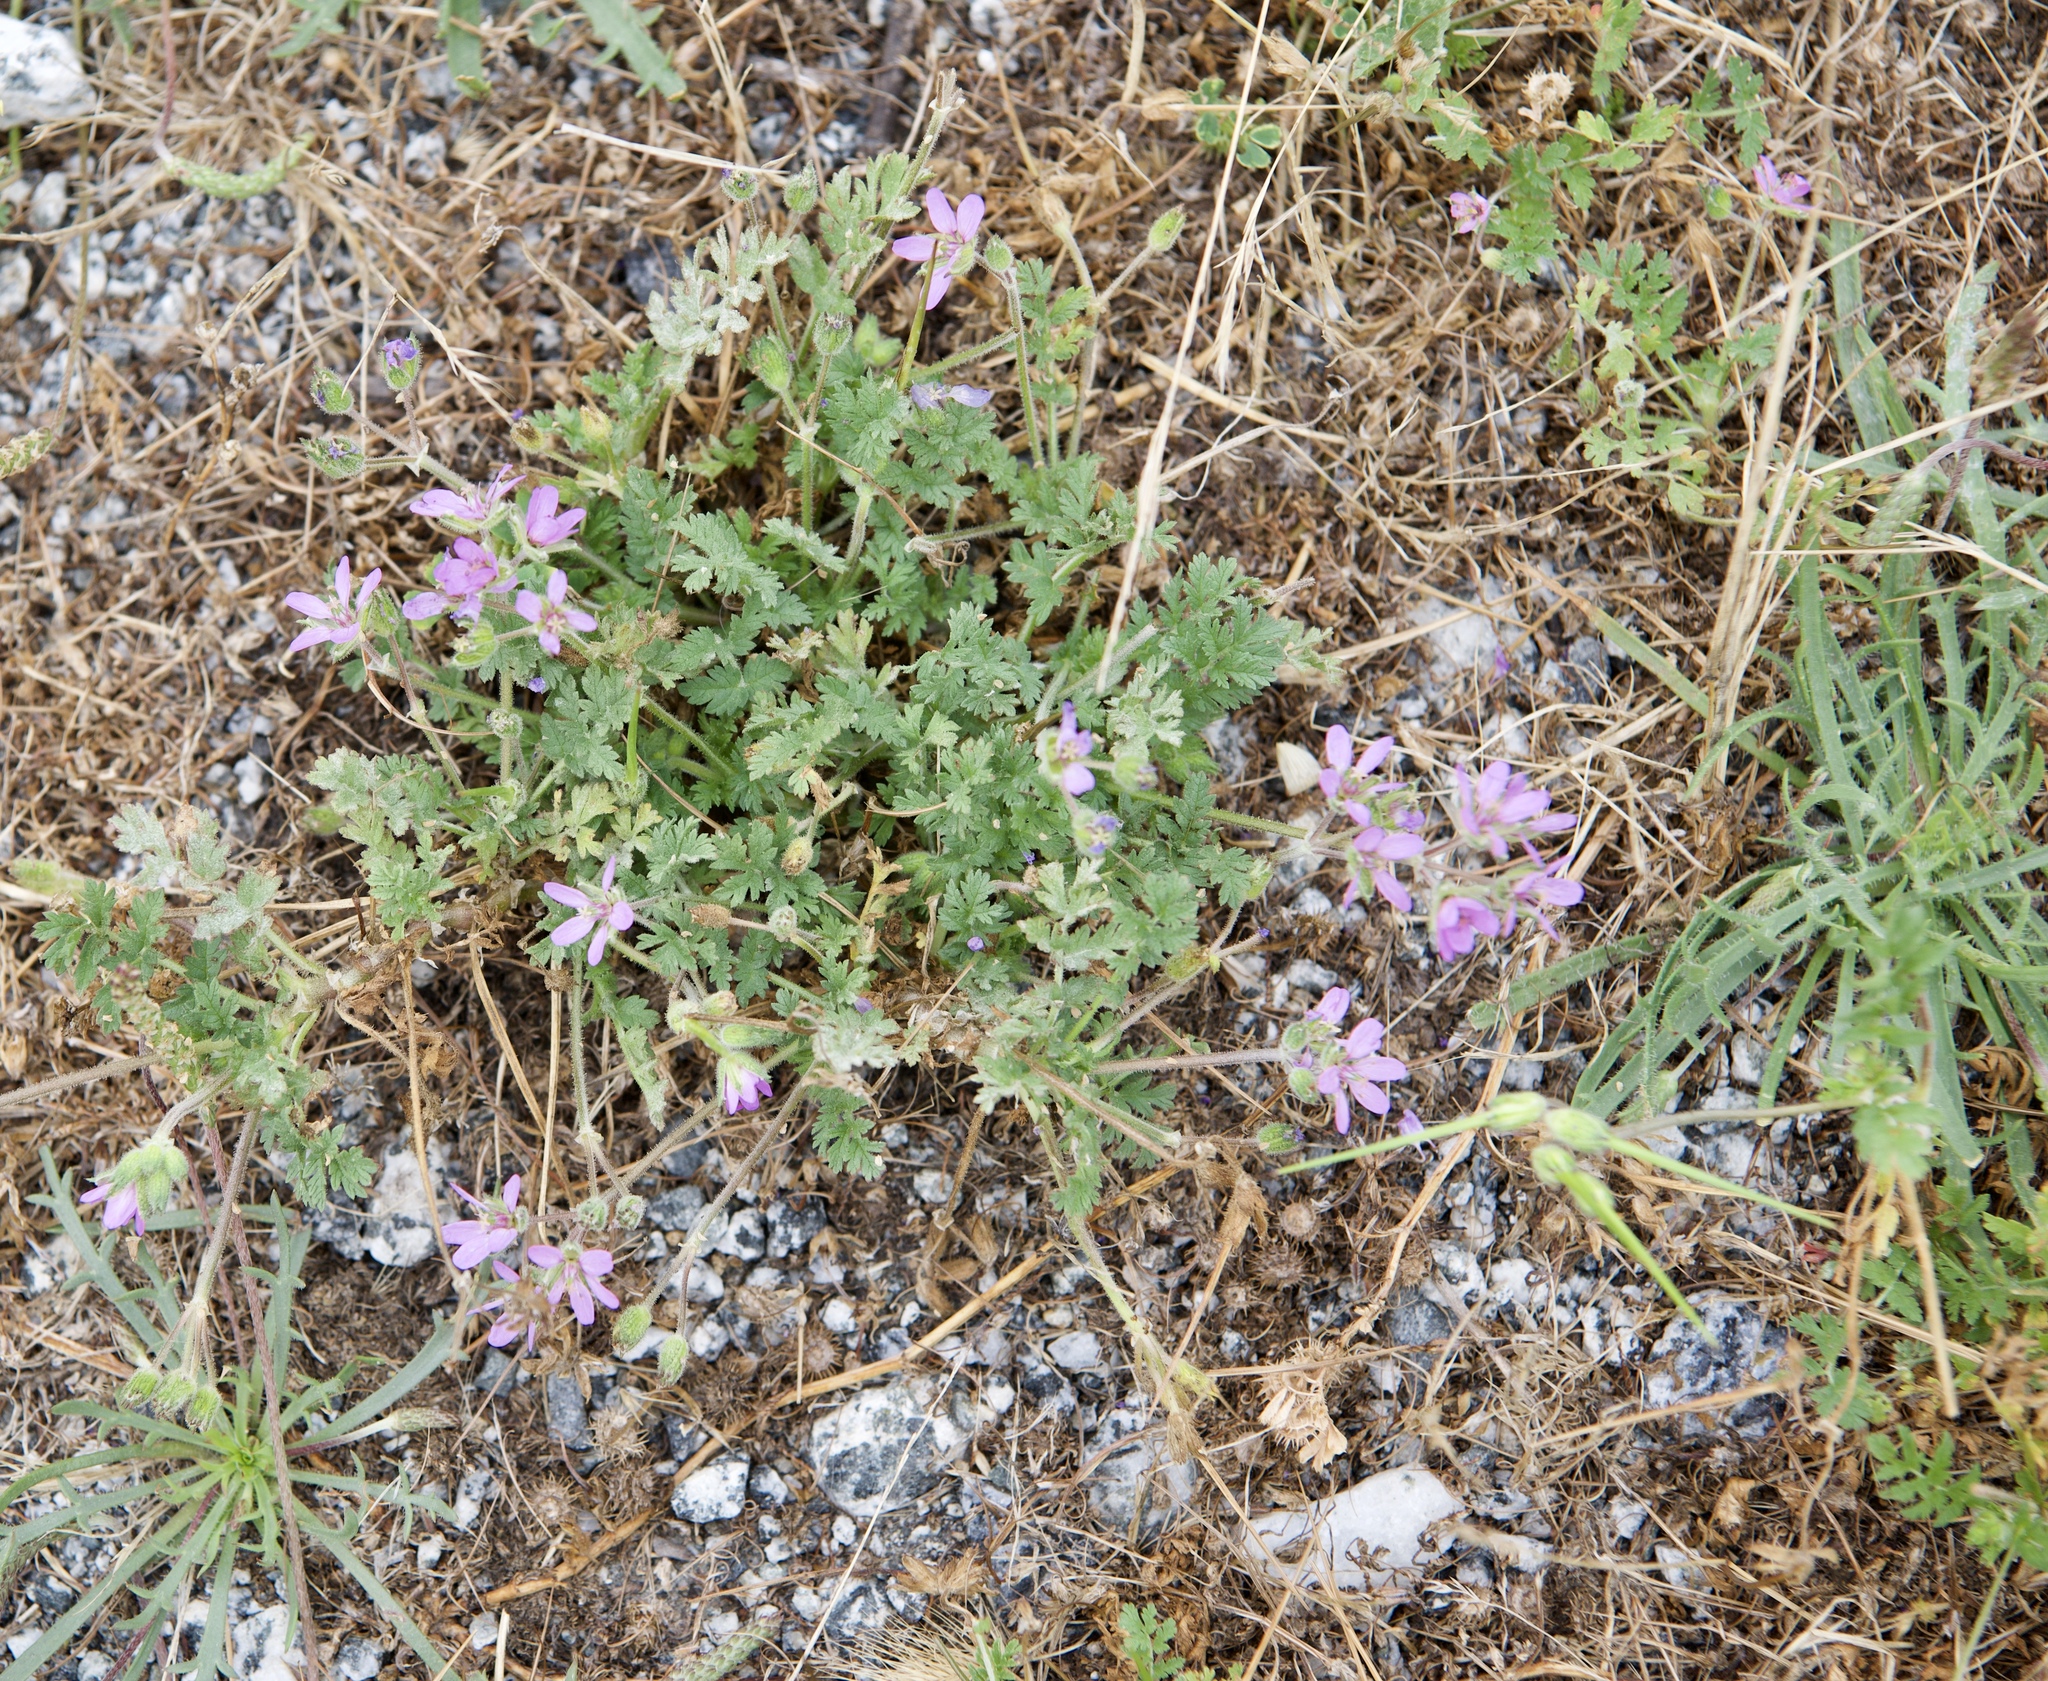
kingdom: Plantae
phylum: Tracheophyta
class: Magnoliopsida
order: Geraniales
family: Geraniaceae
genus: Erodium
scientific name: Erodium cicutarium
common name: Common stork's-bill
